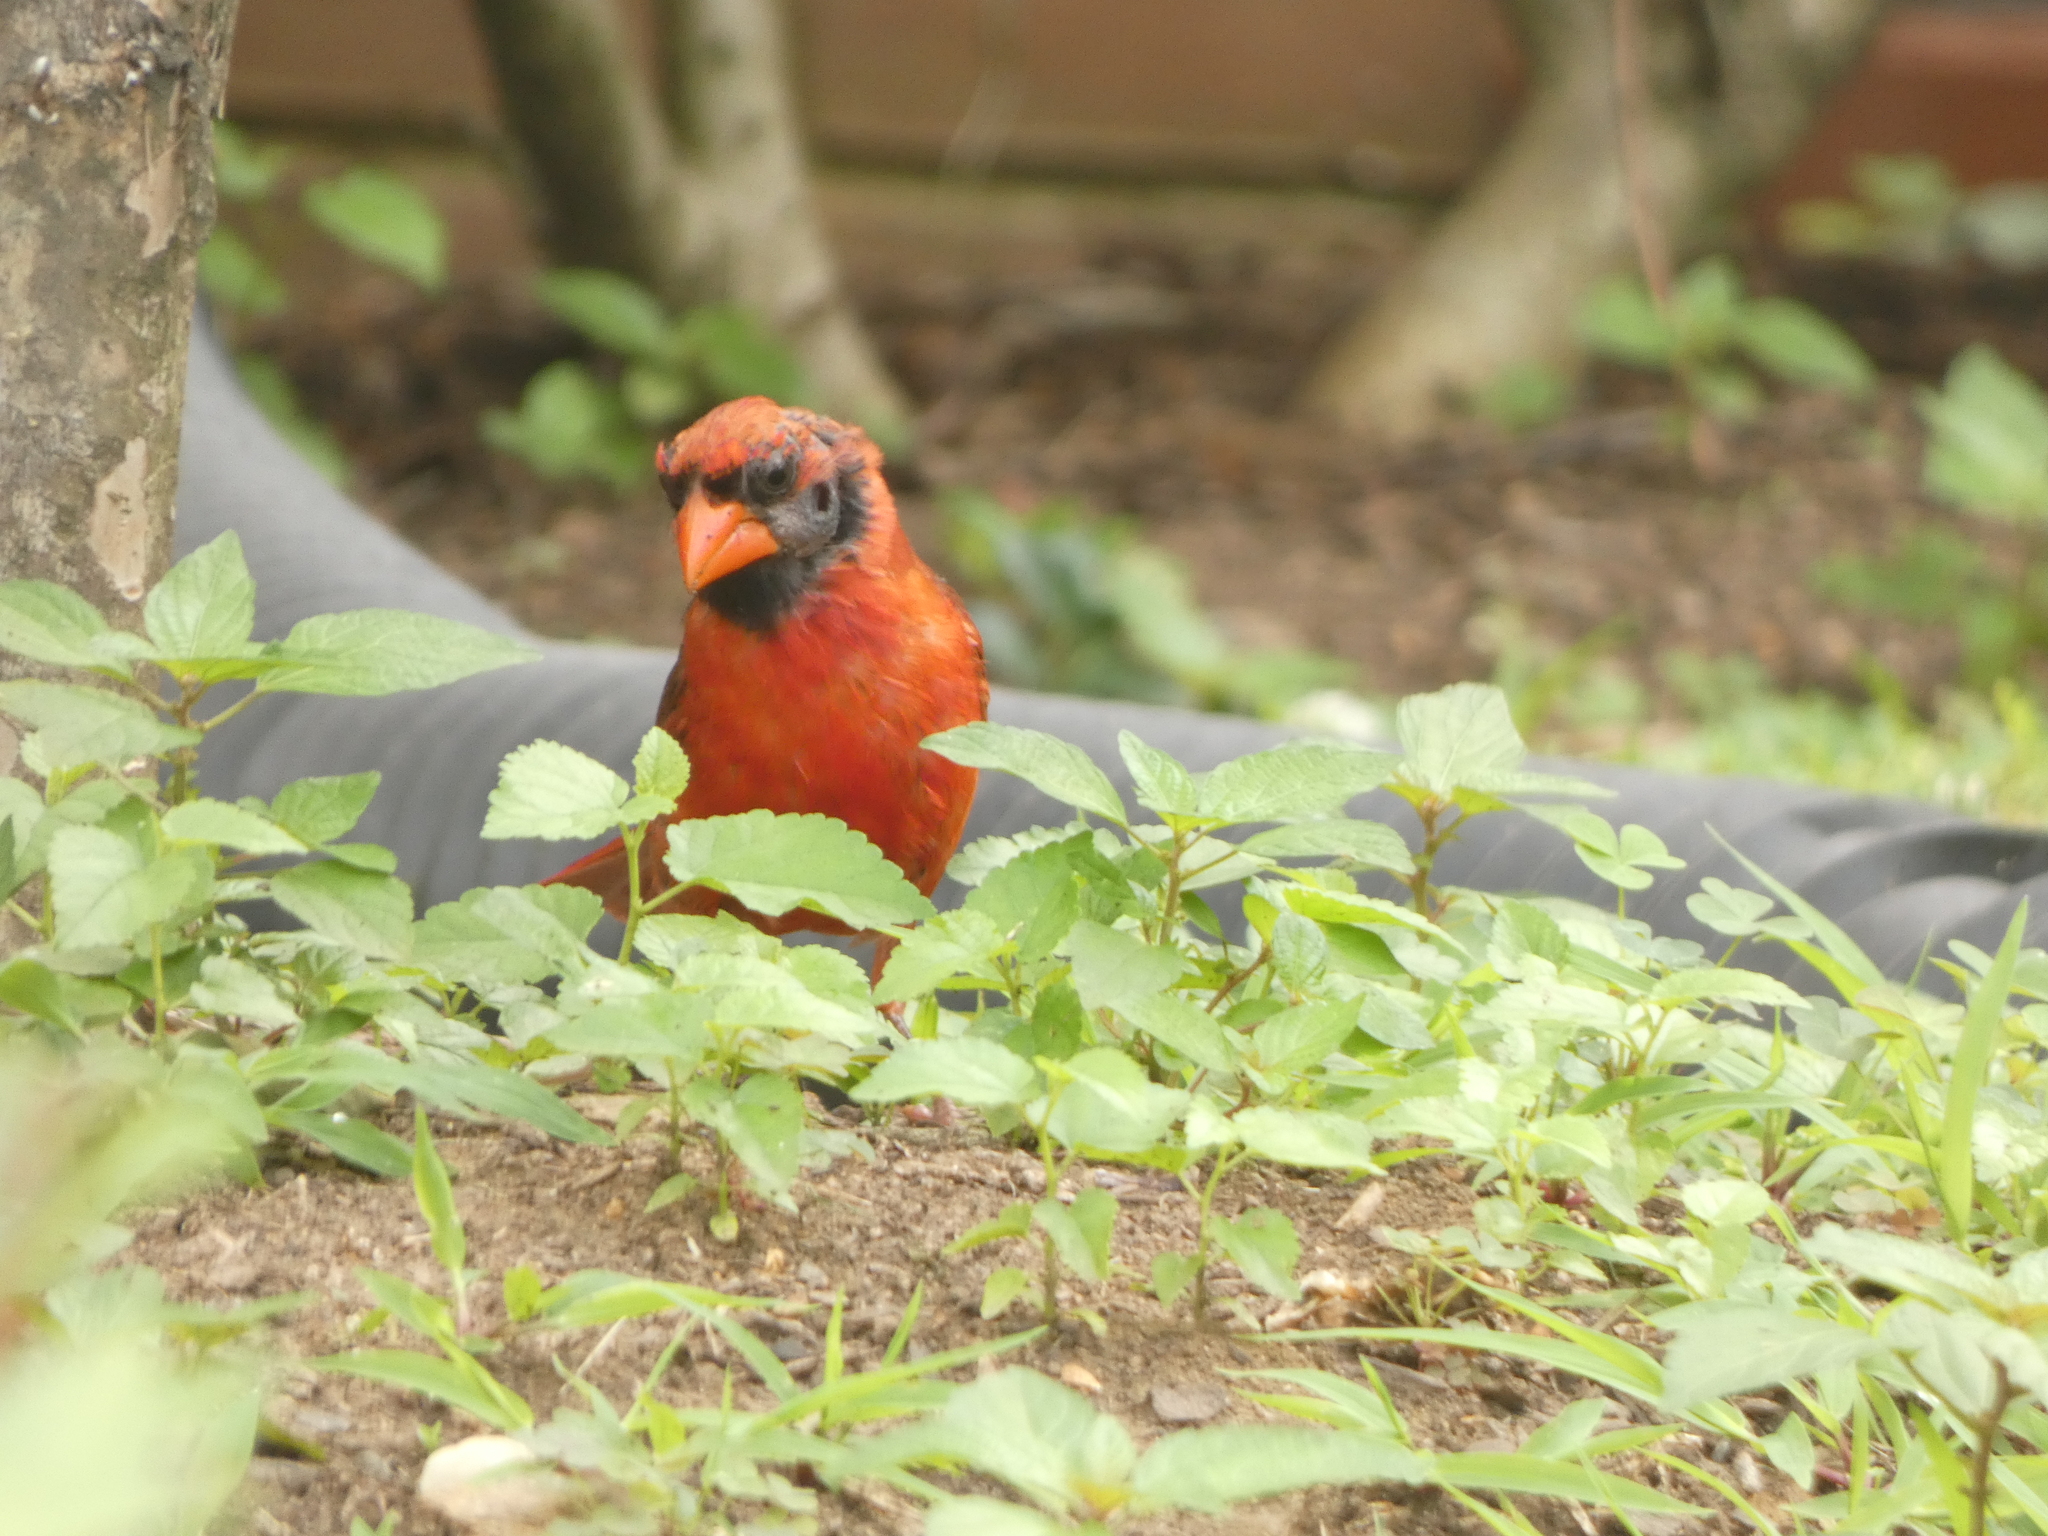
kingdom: Animalia
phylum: Chordata
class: Aves
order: Passeriformes
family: Cardinalidae
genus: Cardinalis
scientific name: Cardinalis cardinalis
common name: Northern cardinal
